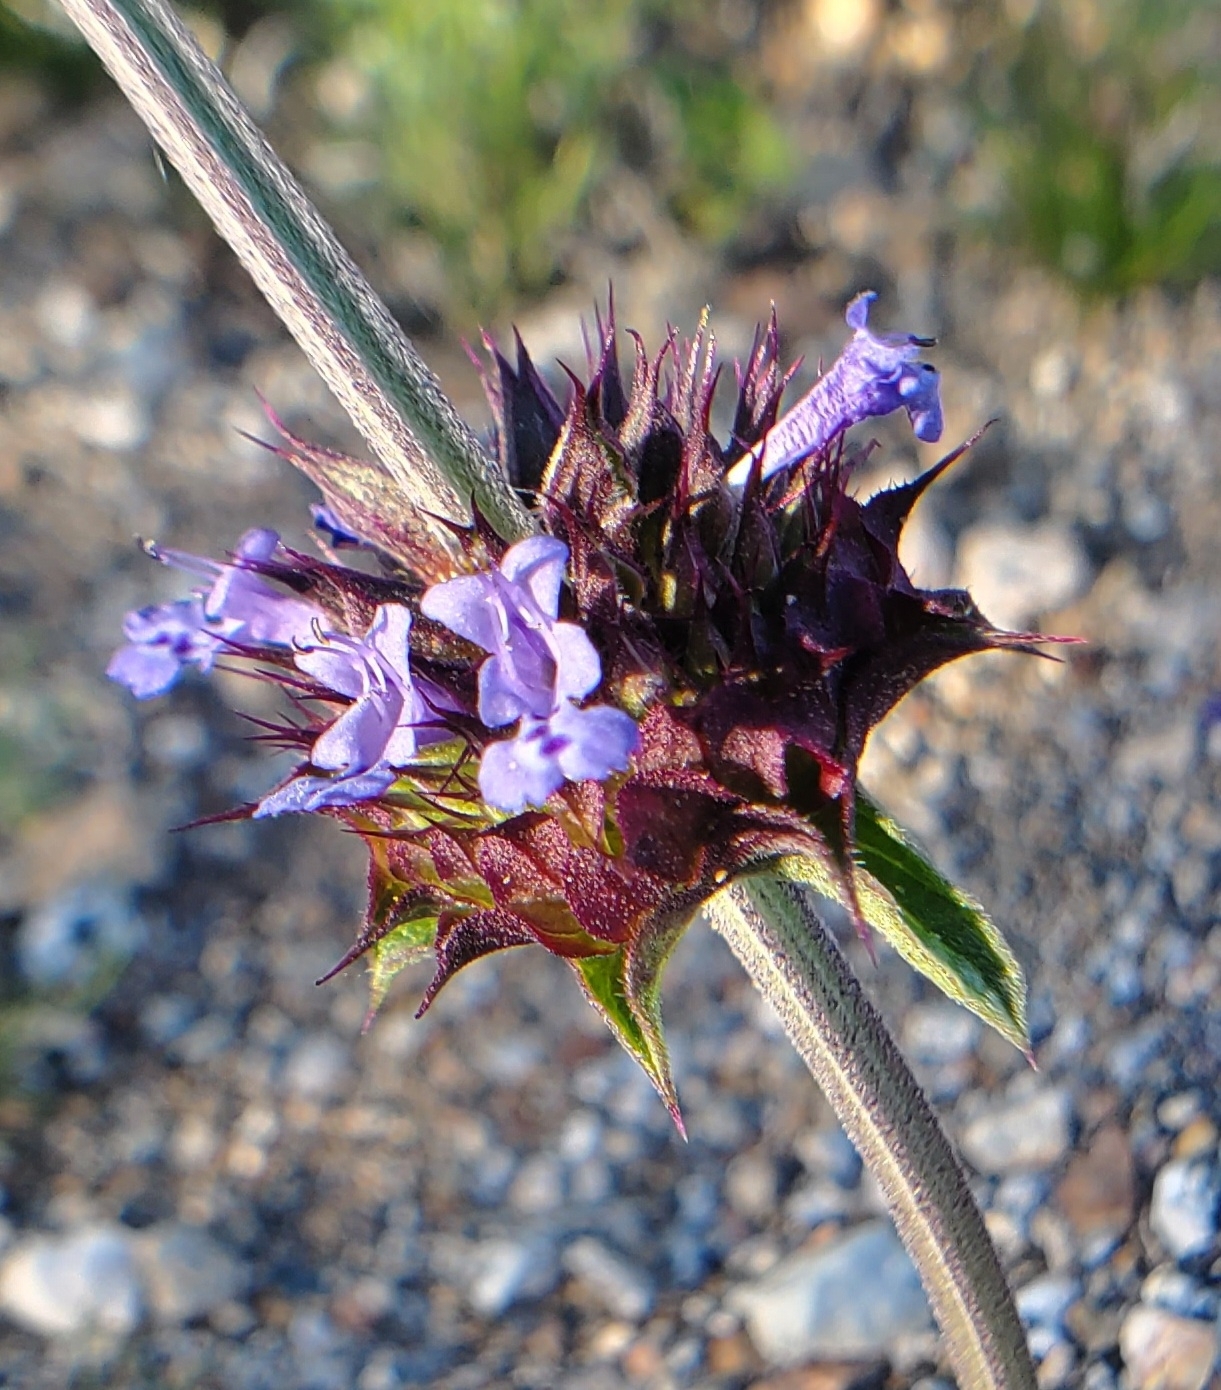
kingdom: Plantae
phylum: Tracheophyta
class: Magnoliopsida
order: Lamiales
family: Lamiaceae
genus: Salvia
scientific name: Salvia columbariae
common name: Chia
